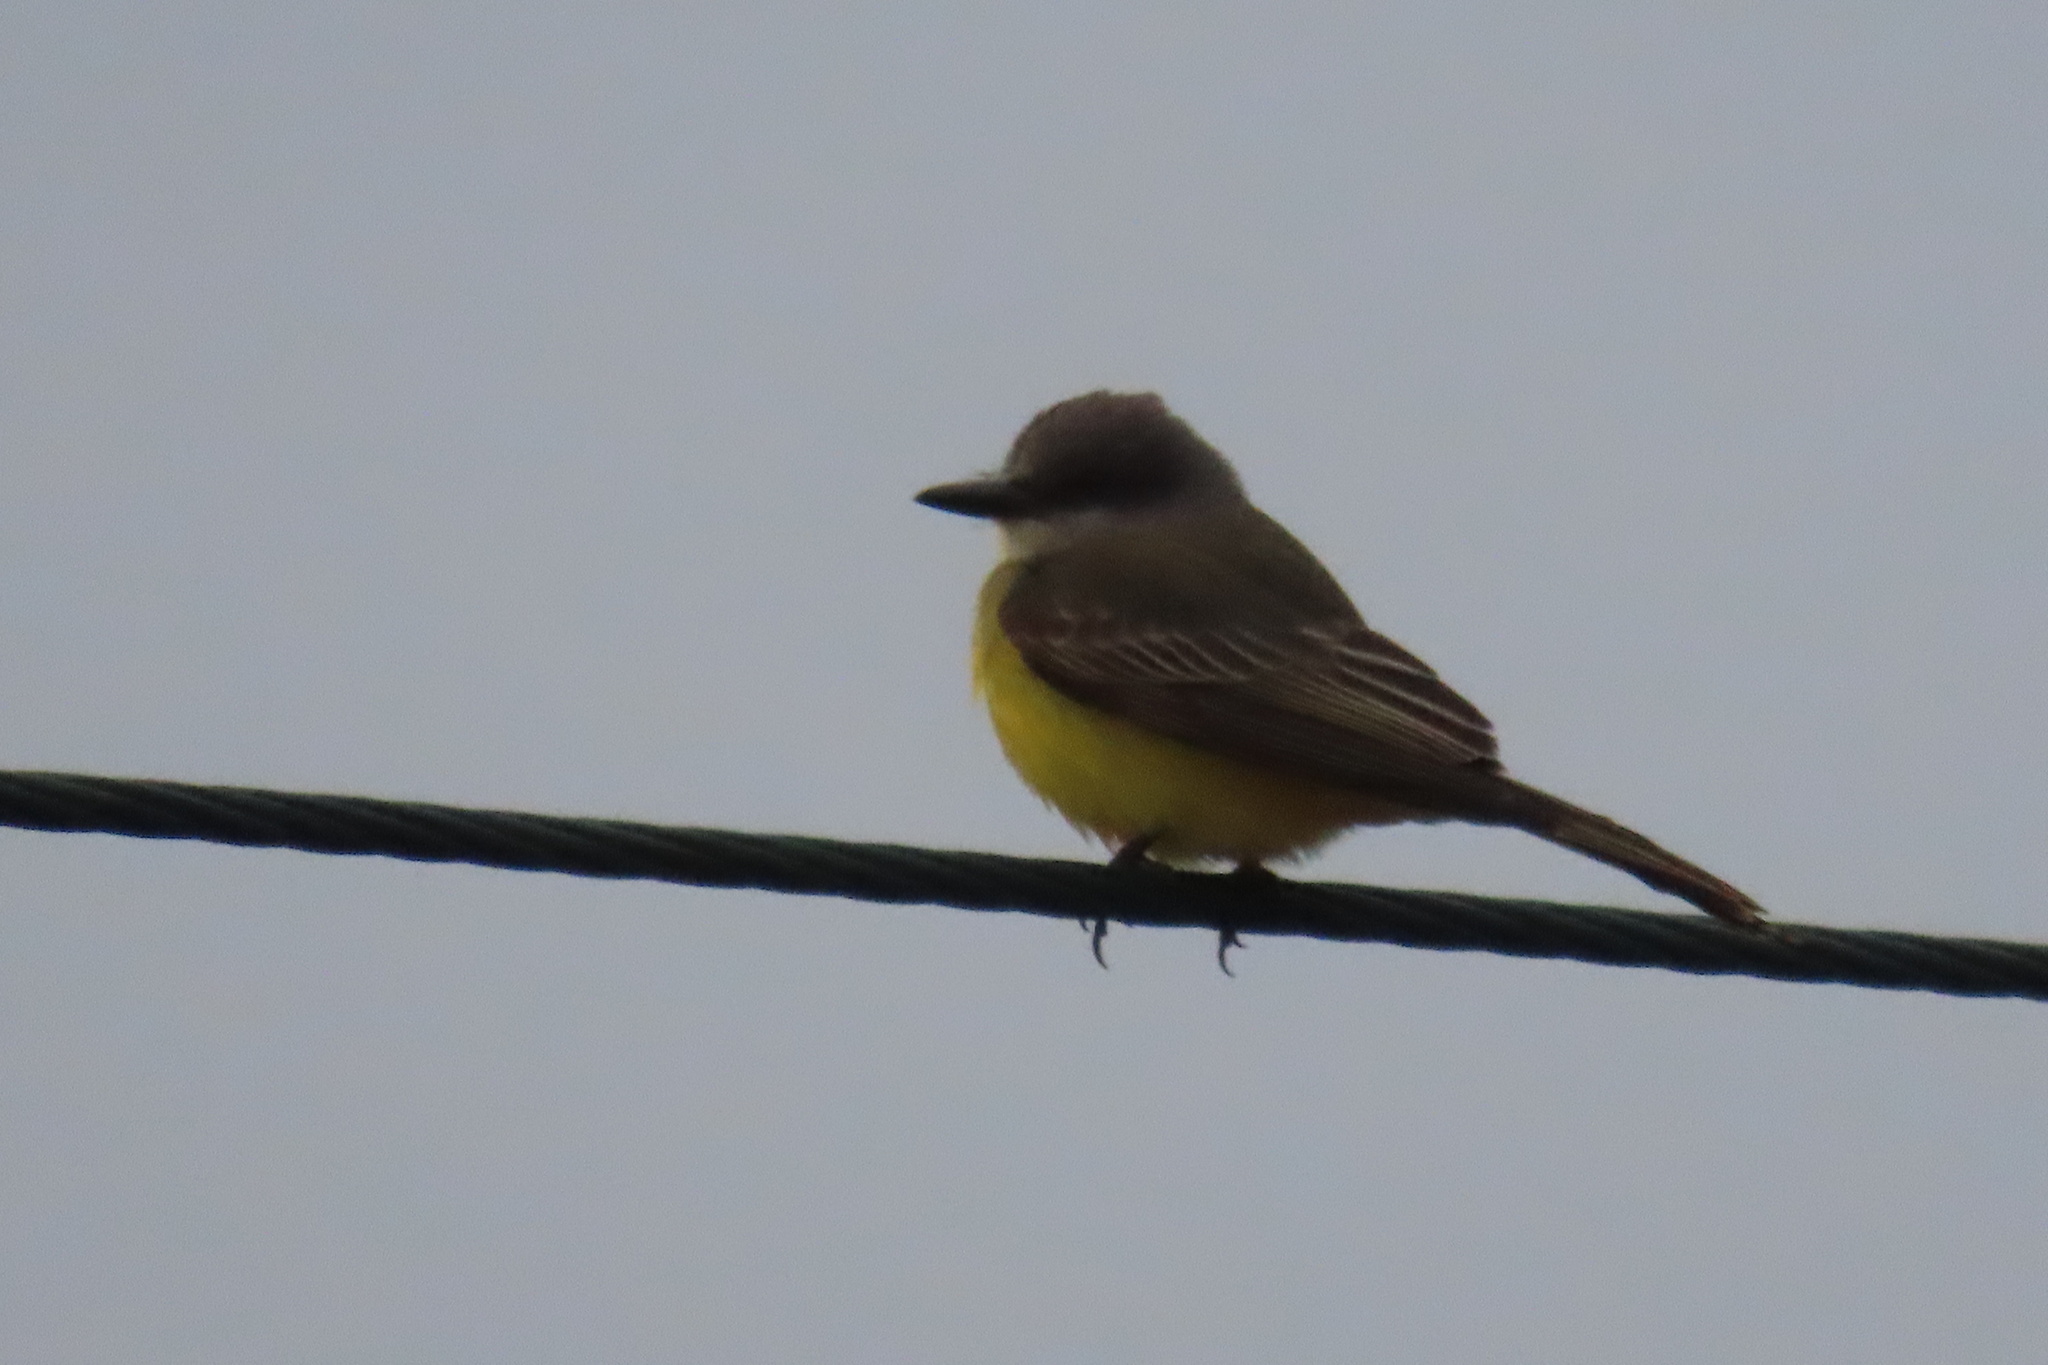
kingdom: Animalia
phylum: Chordata
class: Aves
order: Passeriformes
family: Tyrannidae
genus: Tyrannus
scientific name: Tyrannus melancholicus
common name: Tropical kingbird
